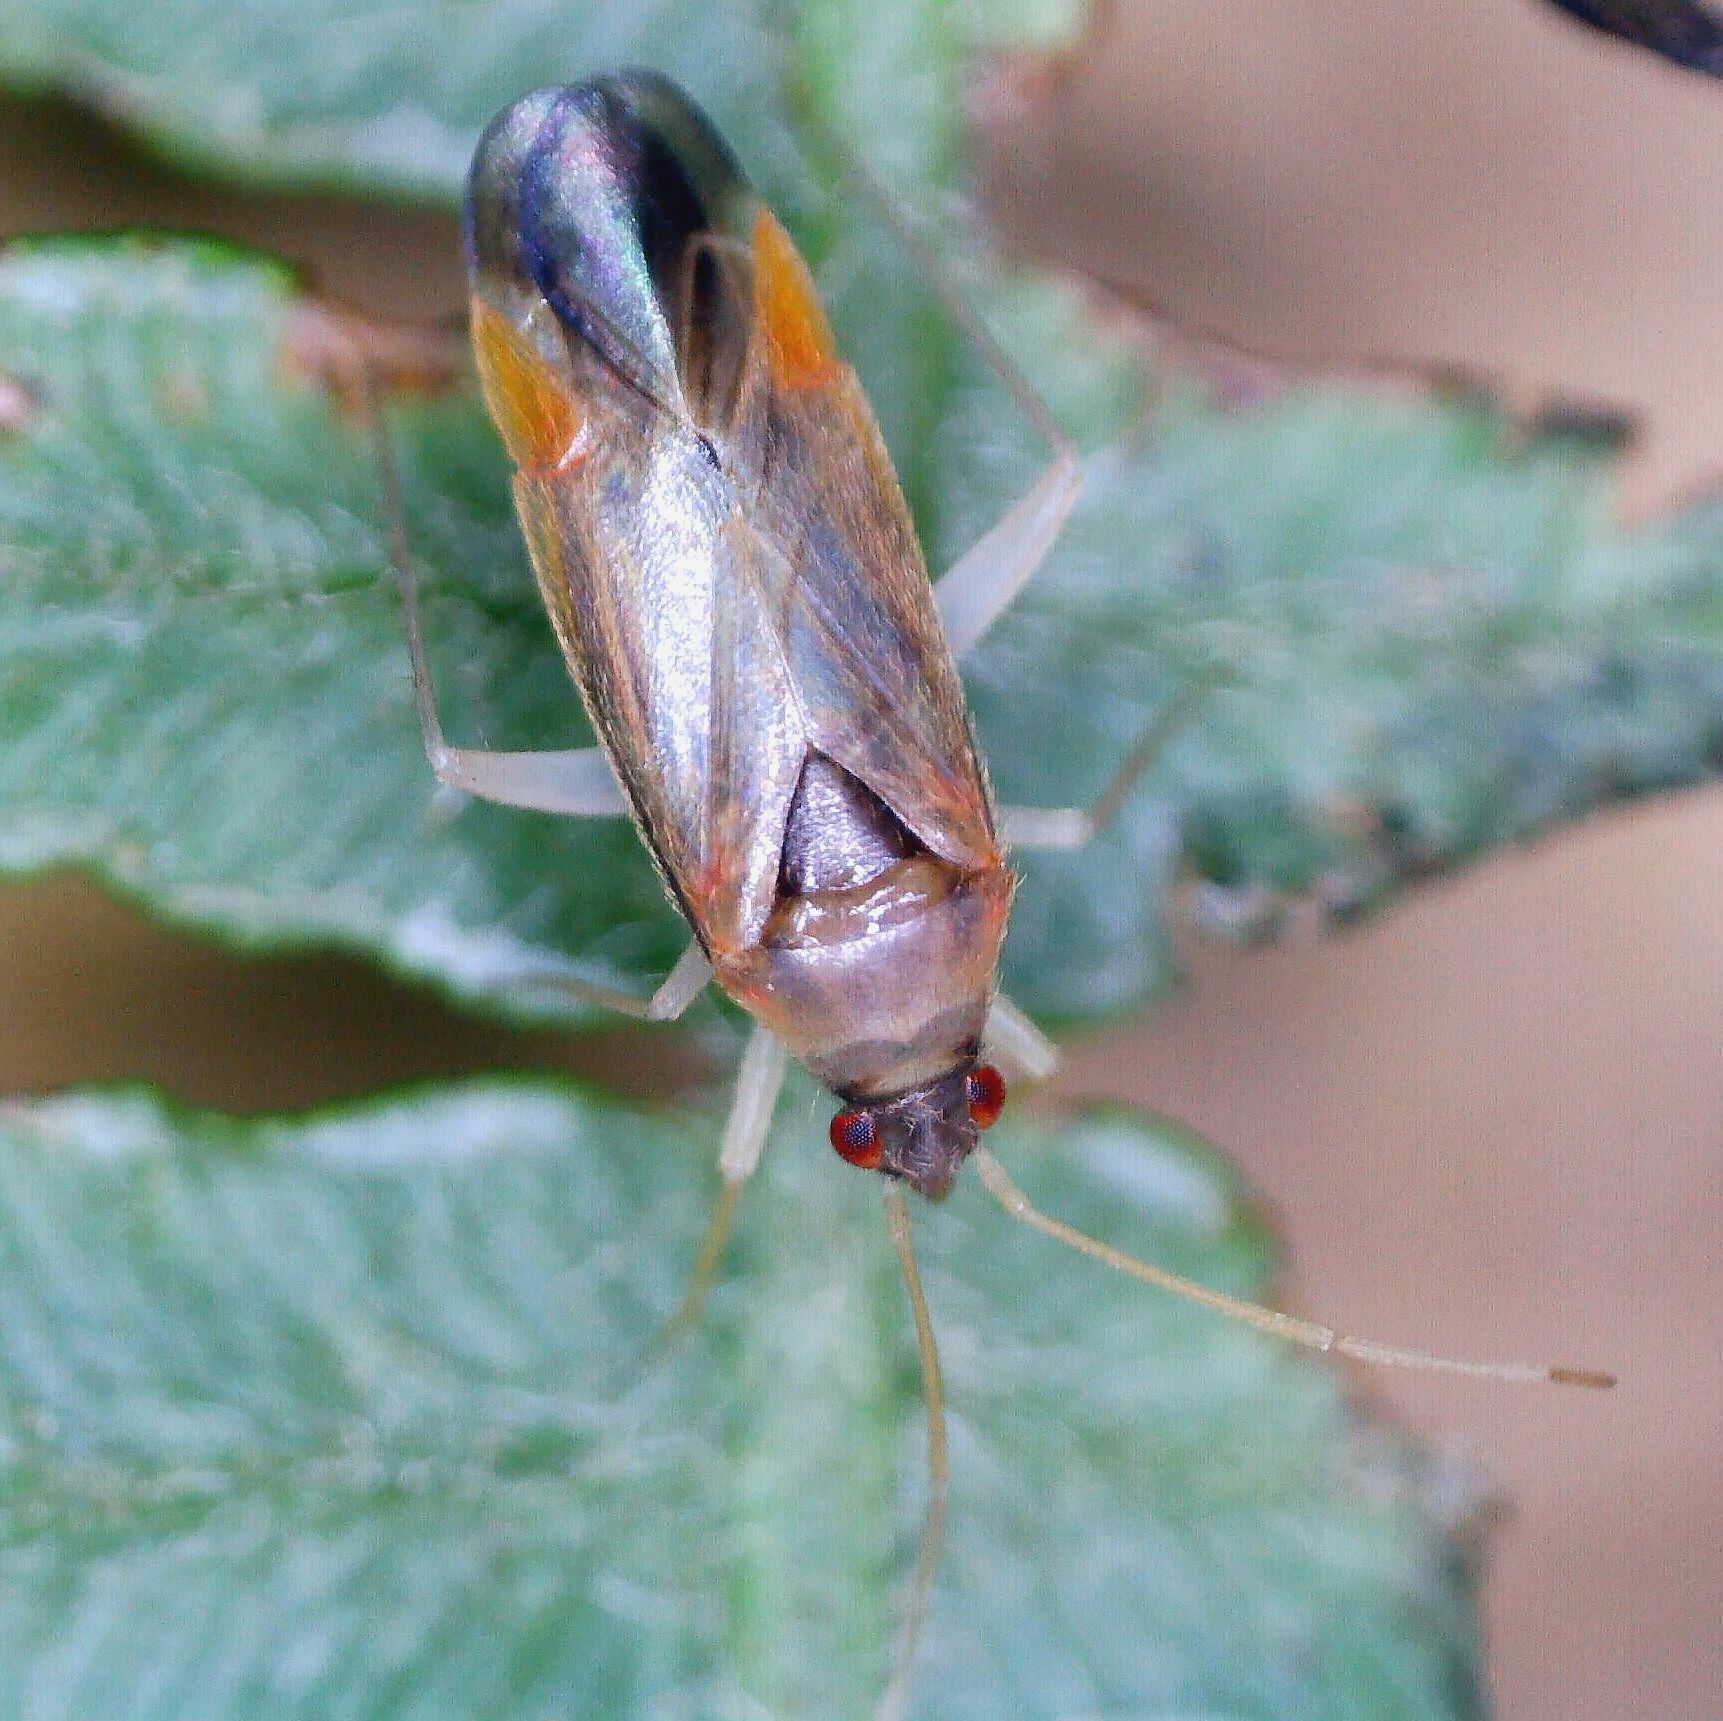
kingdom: Animalia
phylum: Arthropoda
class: Insecta
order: Hemiptera
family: Miridae
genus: Phylus
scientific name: Phylus coryli
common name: Plant bug
